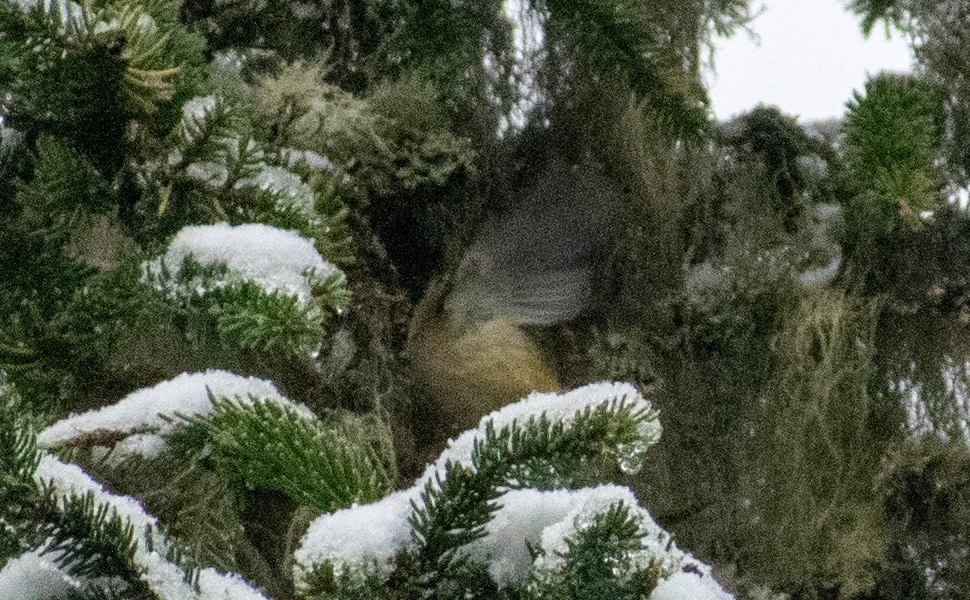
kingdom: Animalia
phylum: Chordata
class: Aves
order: Passeriformes
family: Regulidae
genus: Regulus
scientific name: Regulus regulus
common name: Goldcrest
